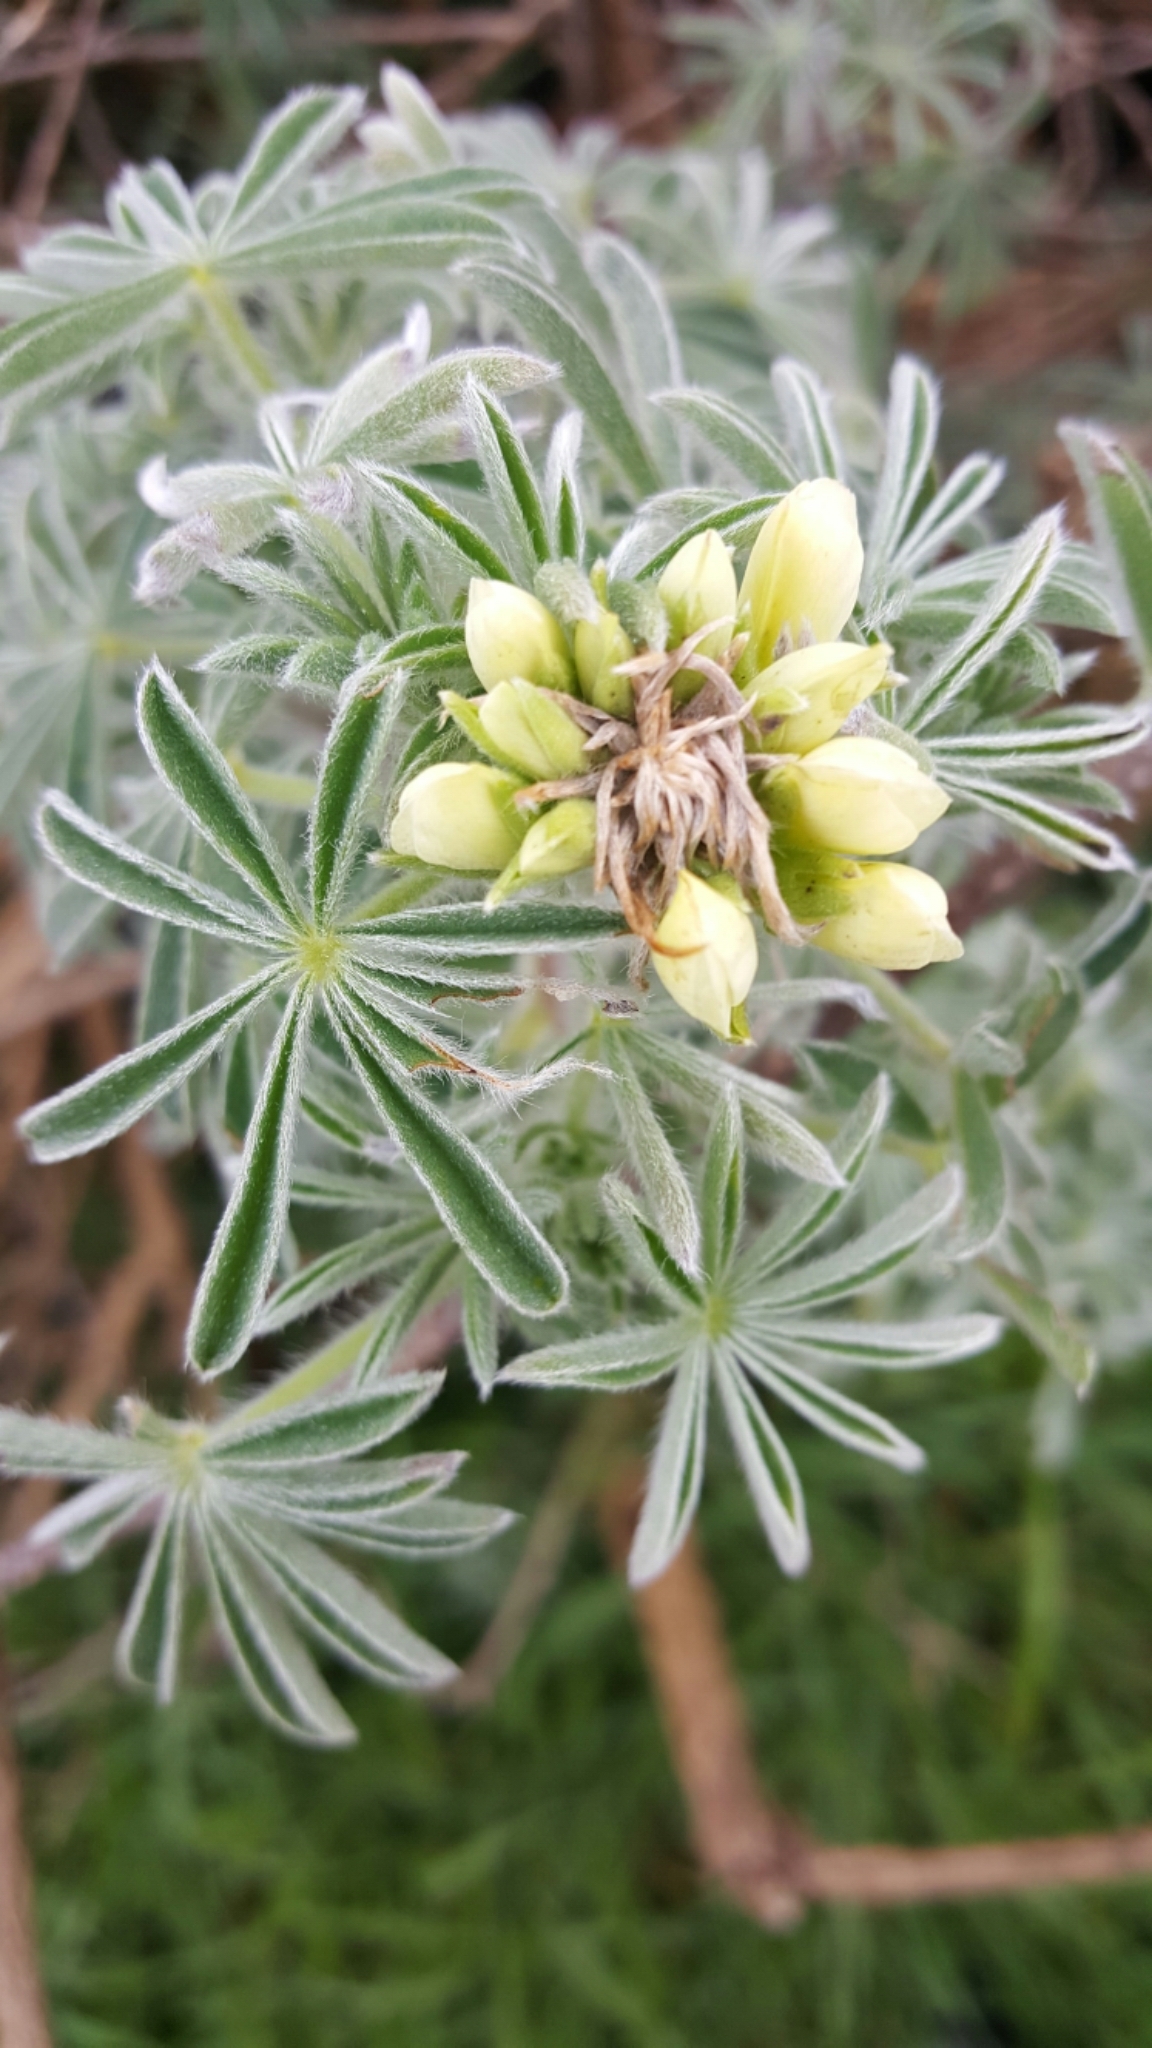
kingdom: Plantae
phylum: Tracheophyta
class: Magnoliopsida
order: Fabales
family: Fabaceae
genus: Lupinus
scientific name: Lupinus arboreus
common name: Yellow bush lupine
